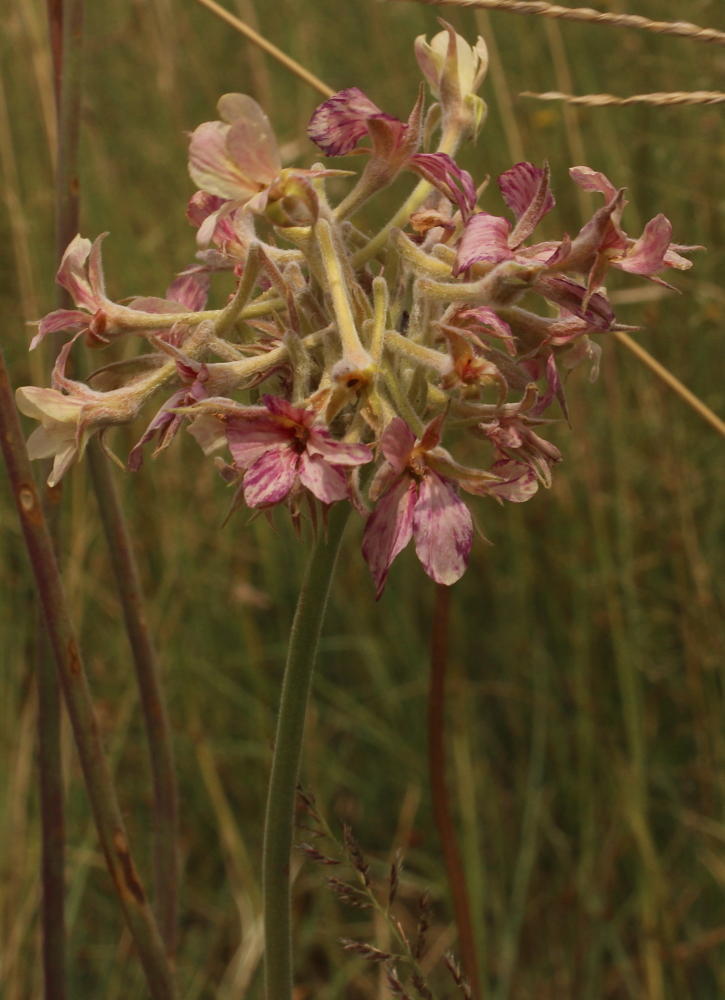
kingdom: Plantae
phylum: Tracheophyta
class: Magnoliopsida
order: Geraniales
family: Geraniaceae
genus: Pelargonium
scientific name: Pelargonium luridum
